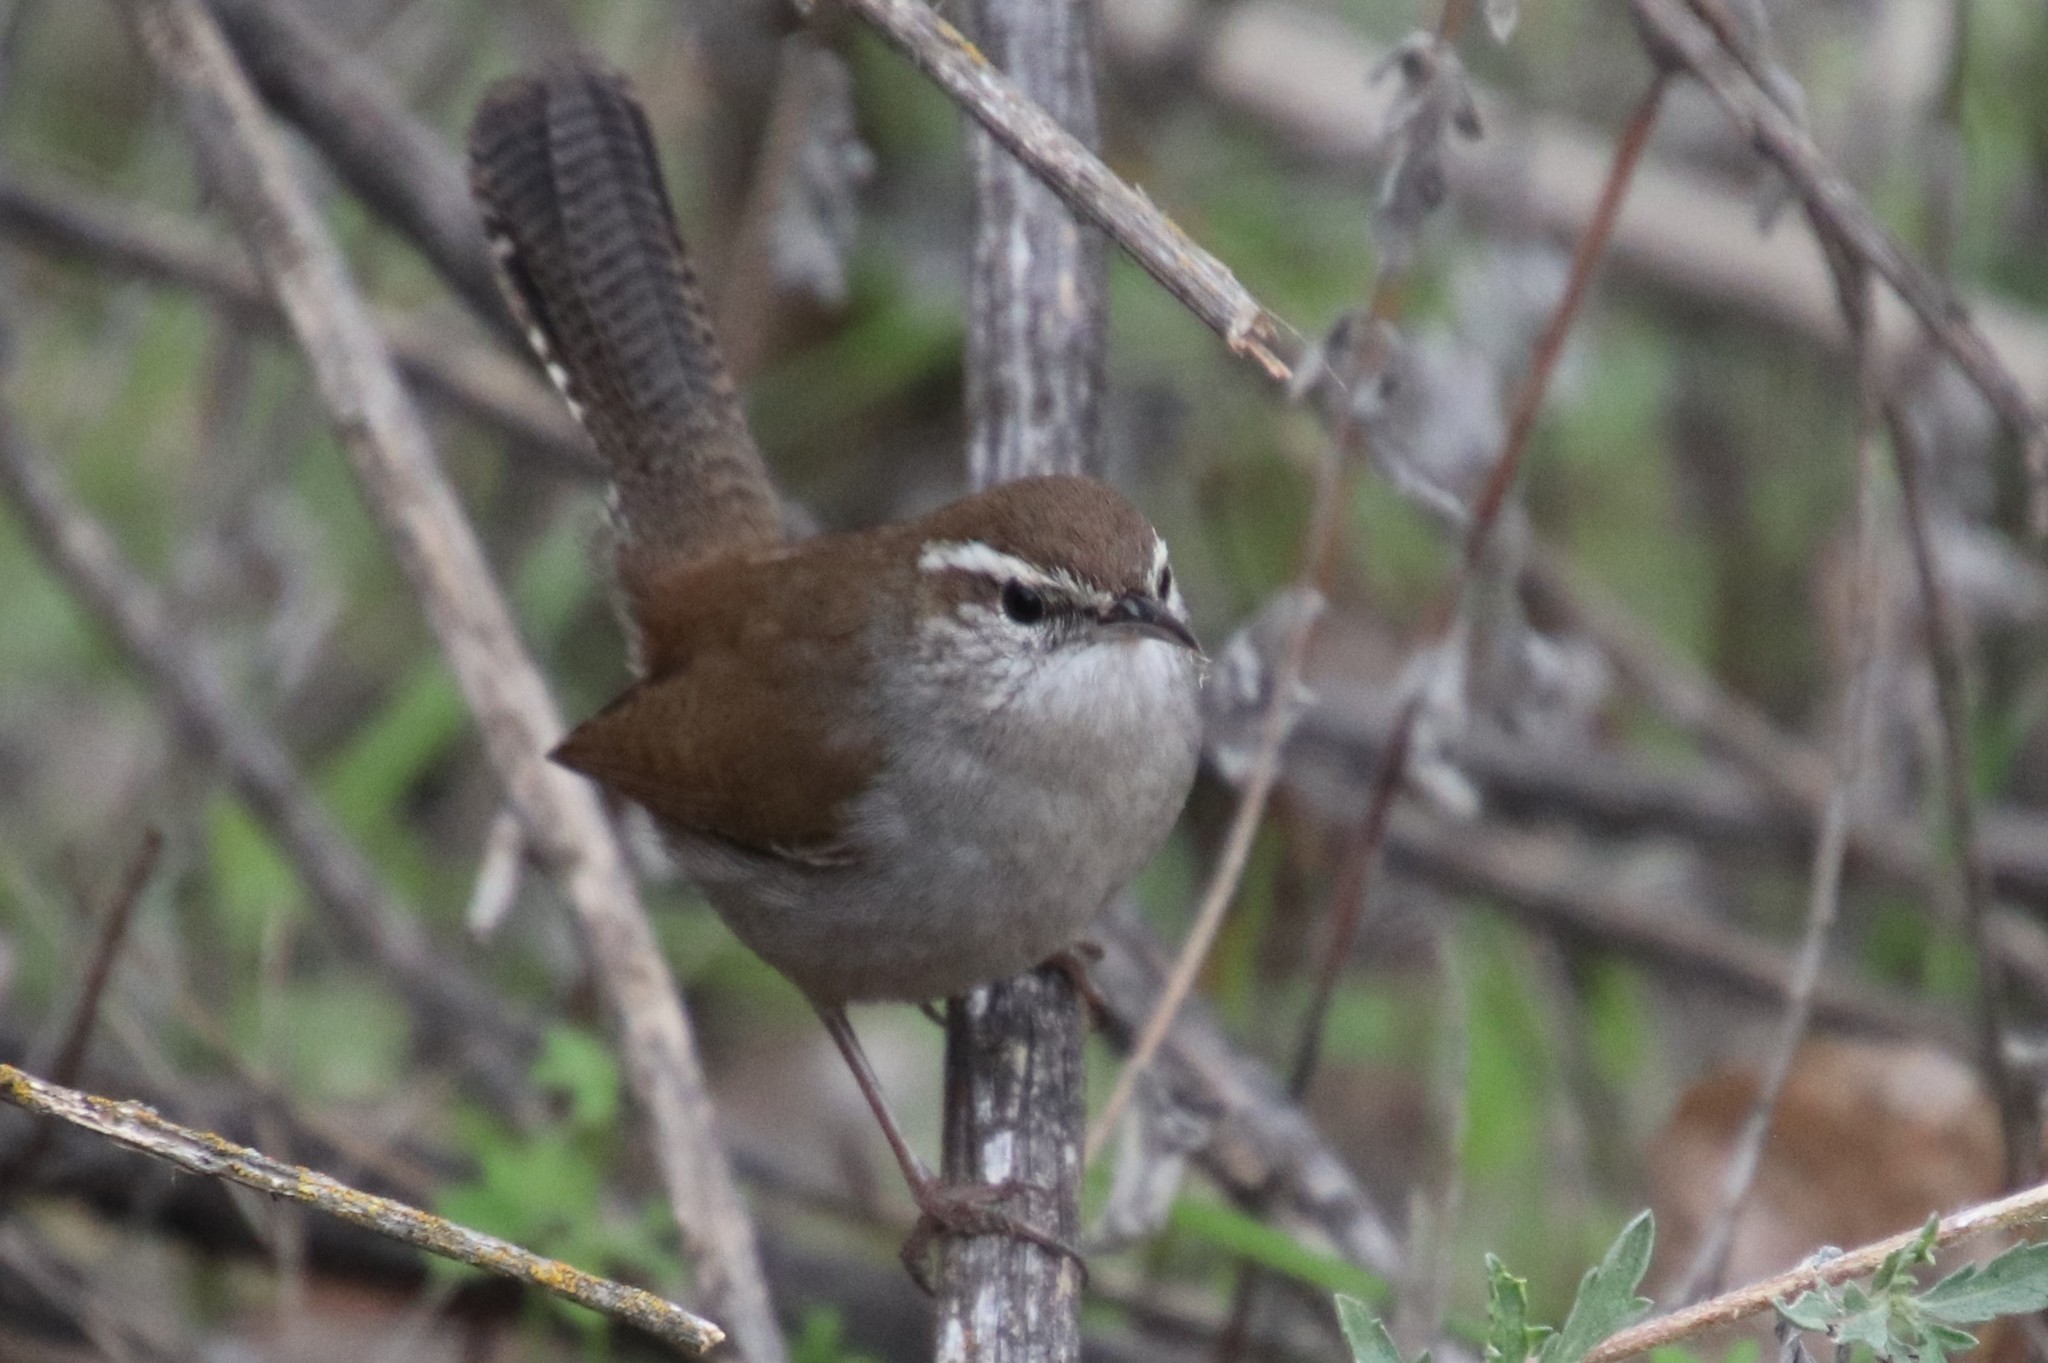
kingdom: Animalia
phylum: Chordata
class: Aves
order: Passeriformes
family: Troglodytidae
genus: Thryomanes
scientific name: Thryomanes bewickii
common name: Bewick's wren
